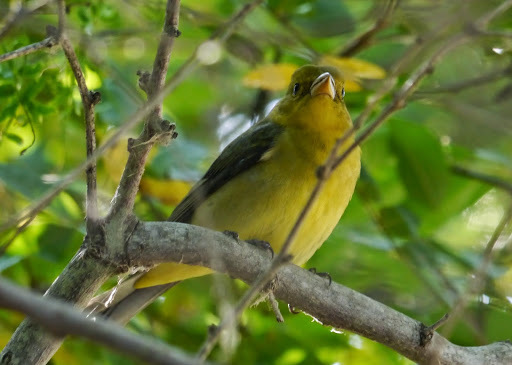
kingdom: Animalia
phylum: Chordata
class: Aves
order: Passeriformes
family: Cardinalidae
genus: Piranga
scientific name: Piranga olivacea
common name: Scarlet tanager
